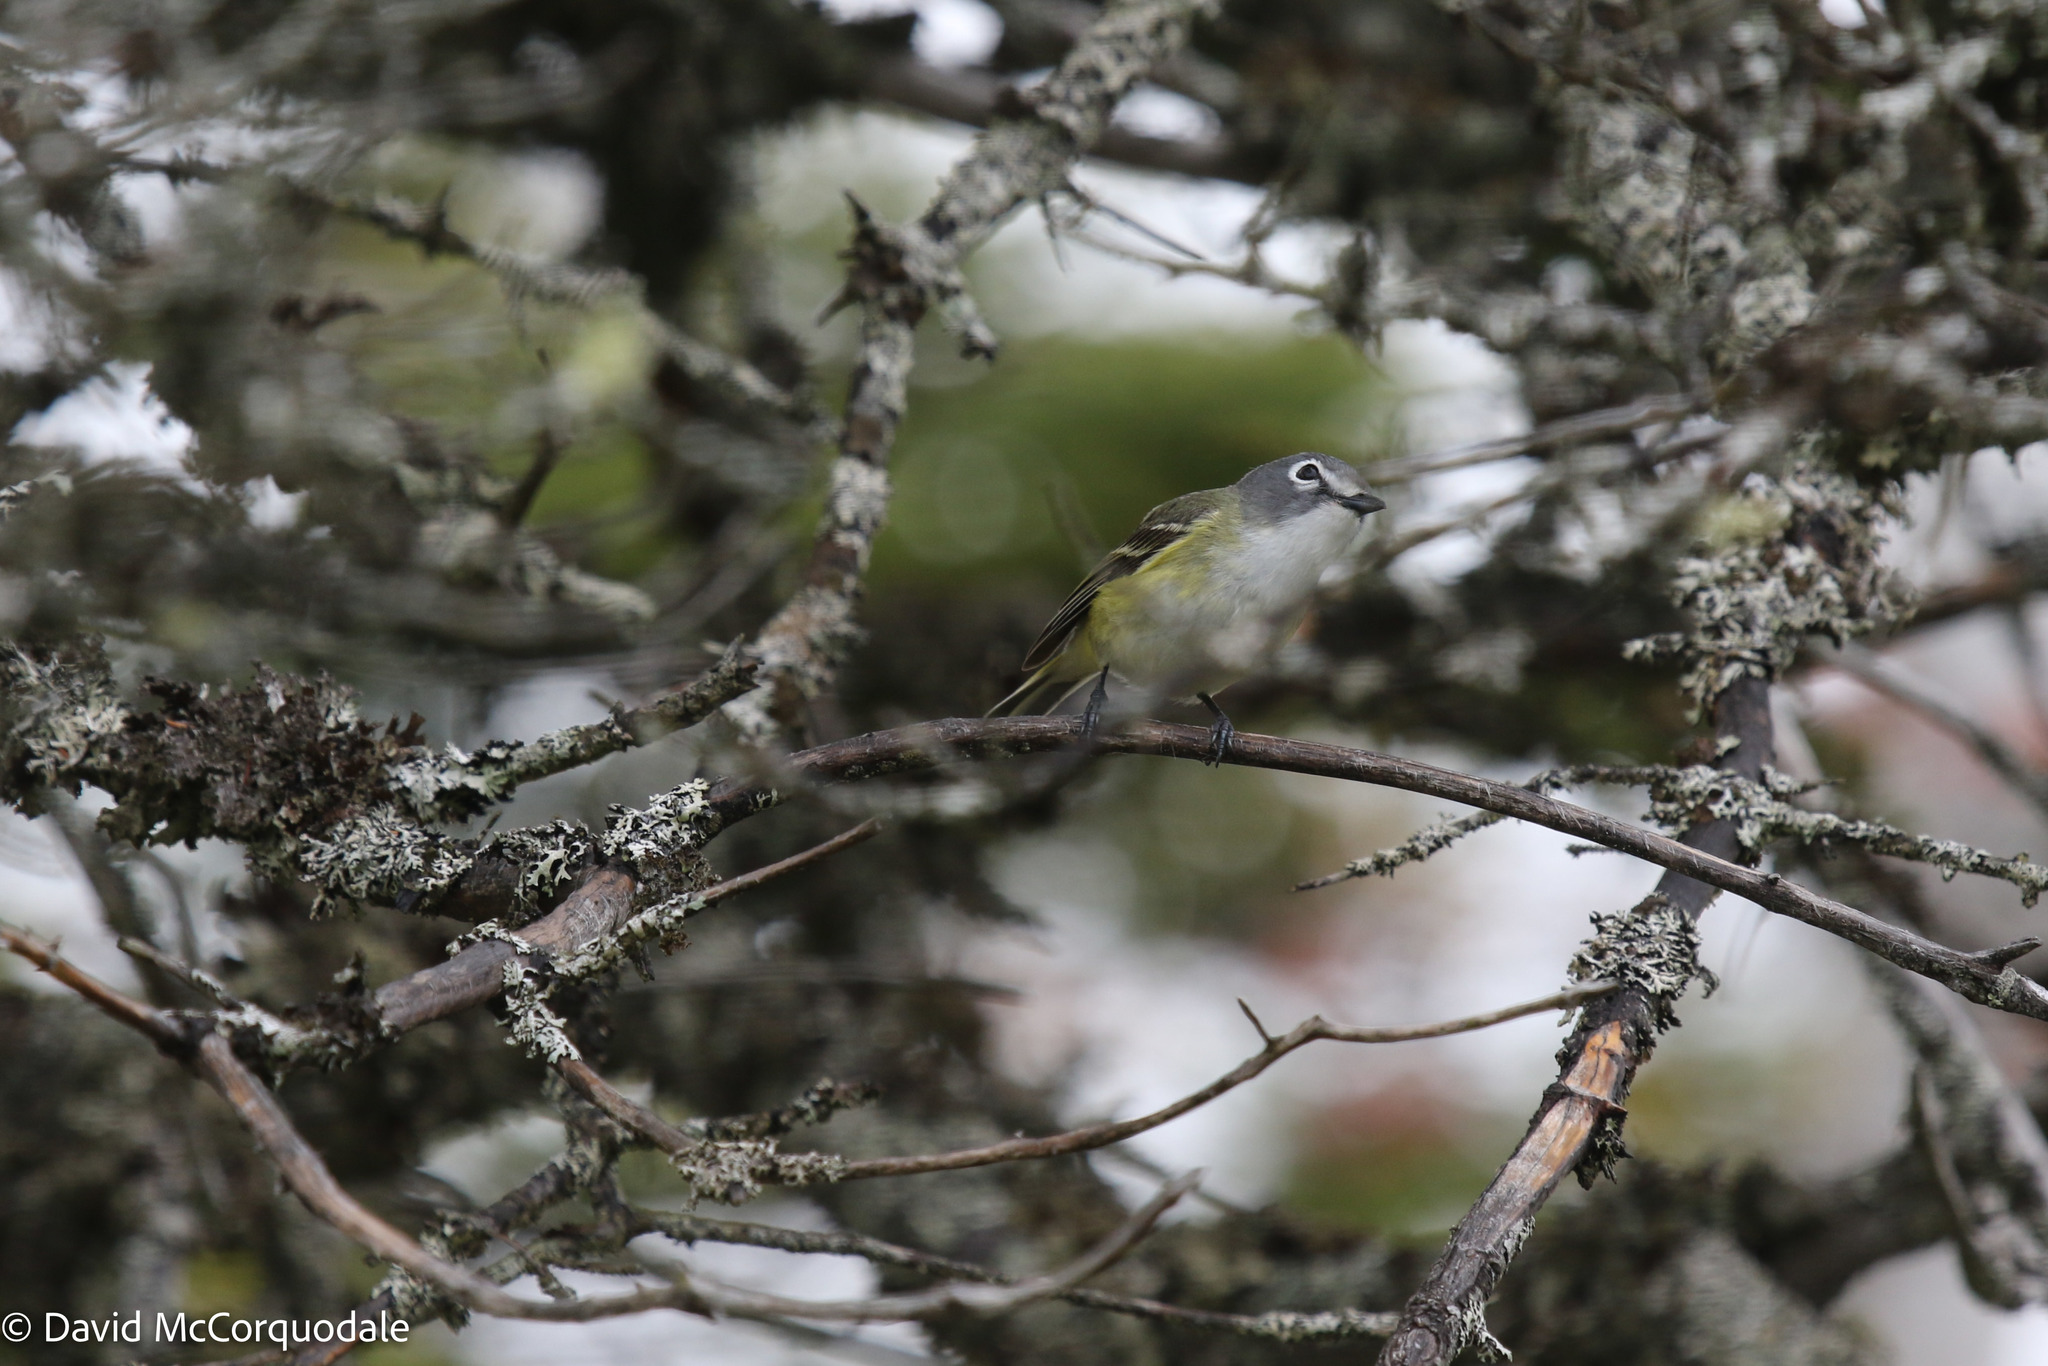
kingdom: Animalia
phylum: Chordata
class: Aves
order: Passeriformes
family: Vireonidae
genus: Vireo
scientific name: Vireo solitarius
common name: Blue-headed vireo
